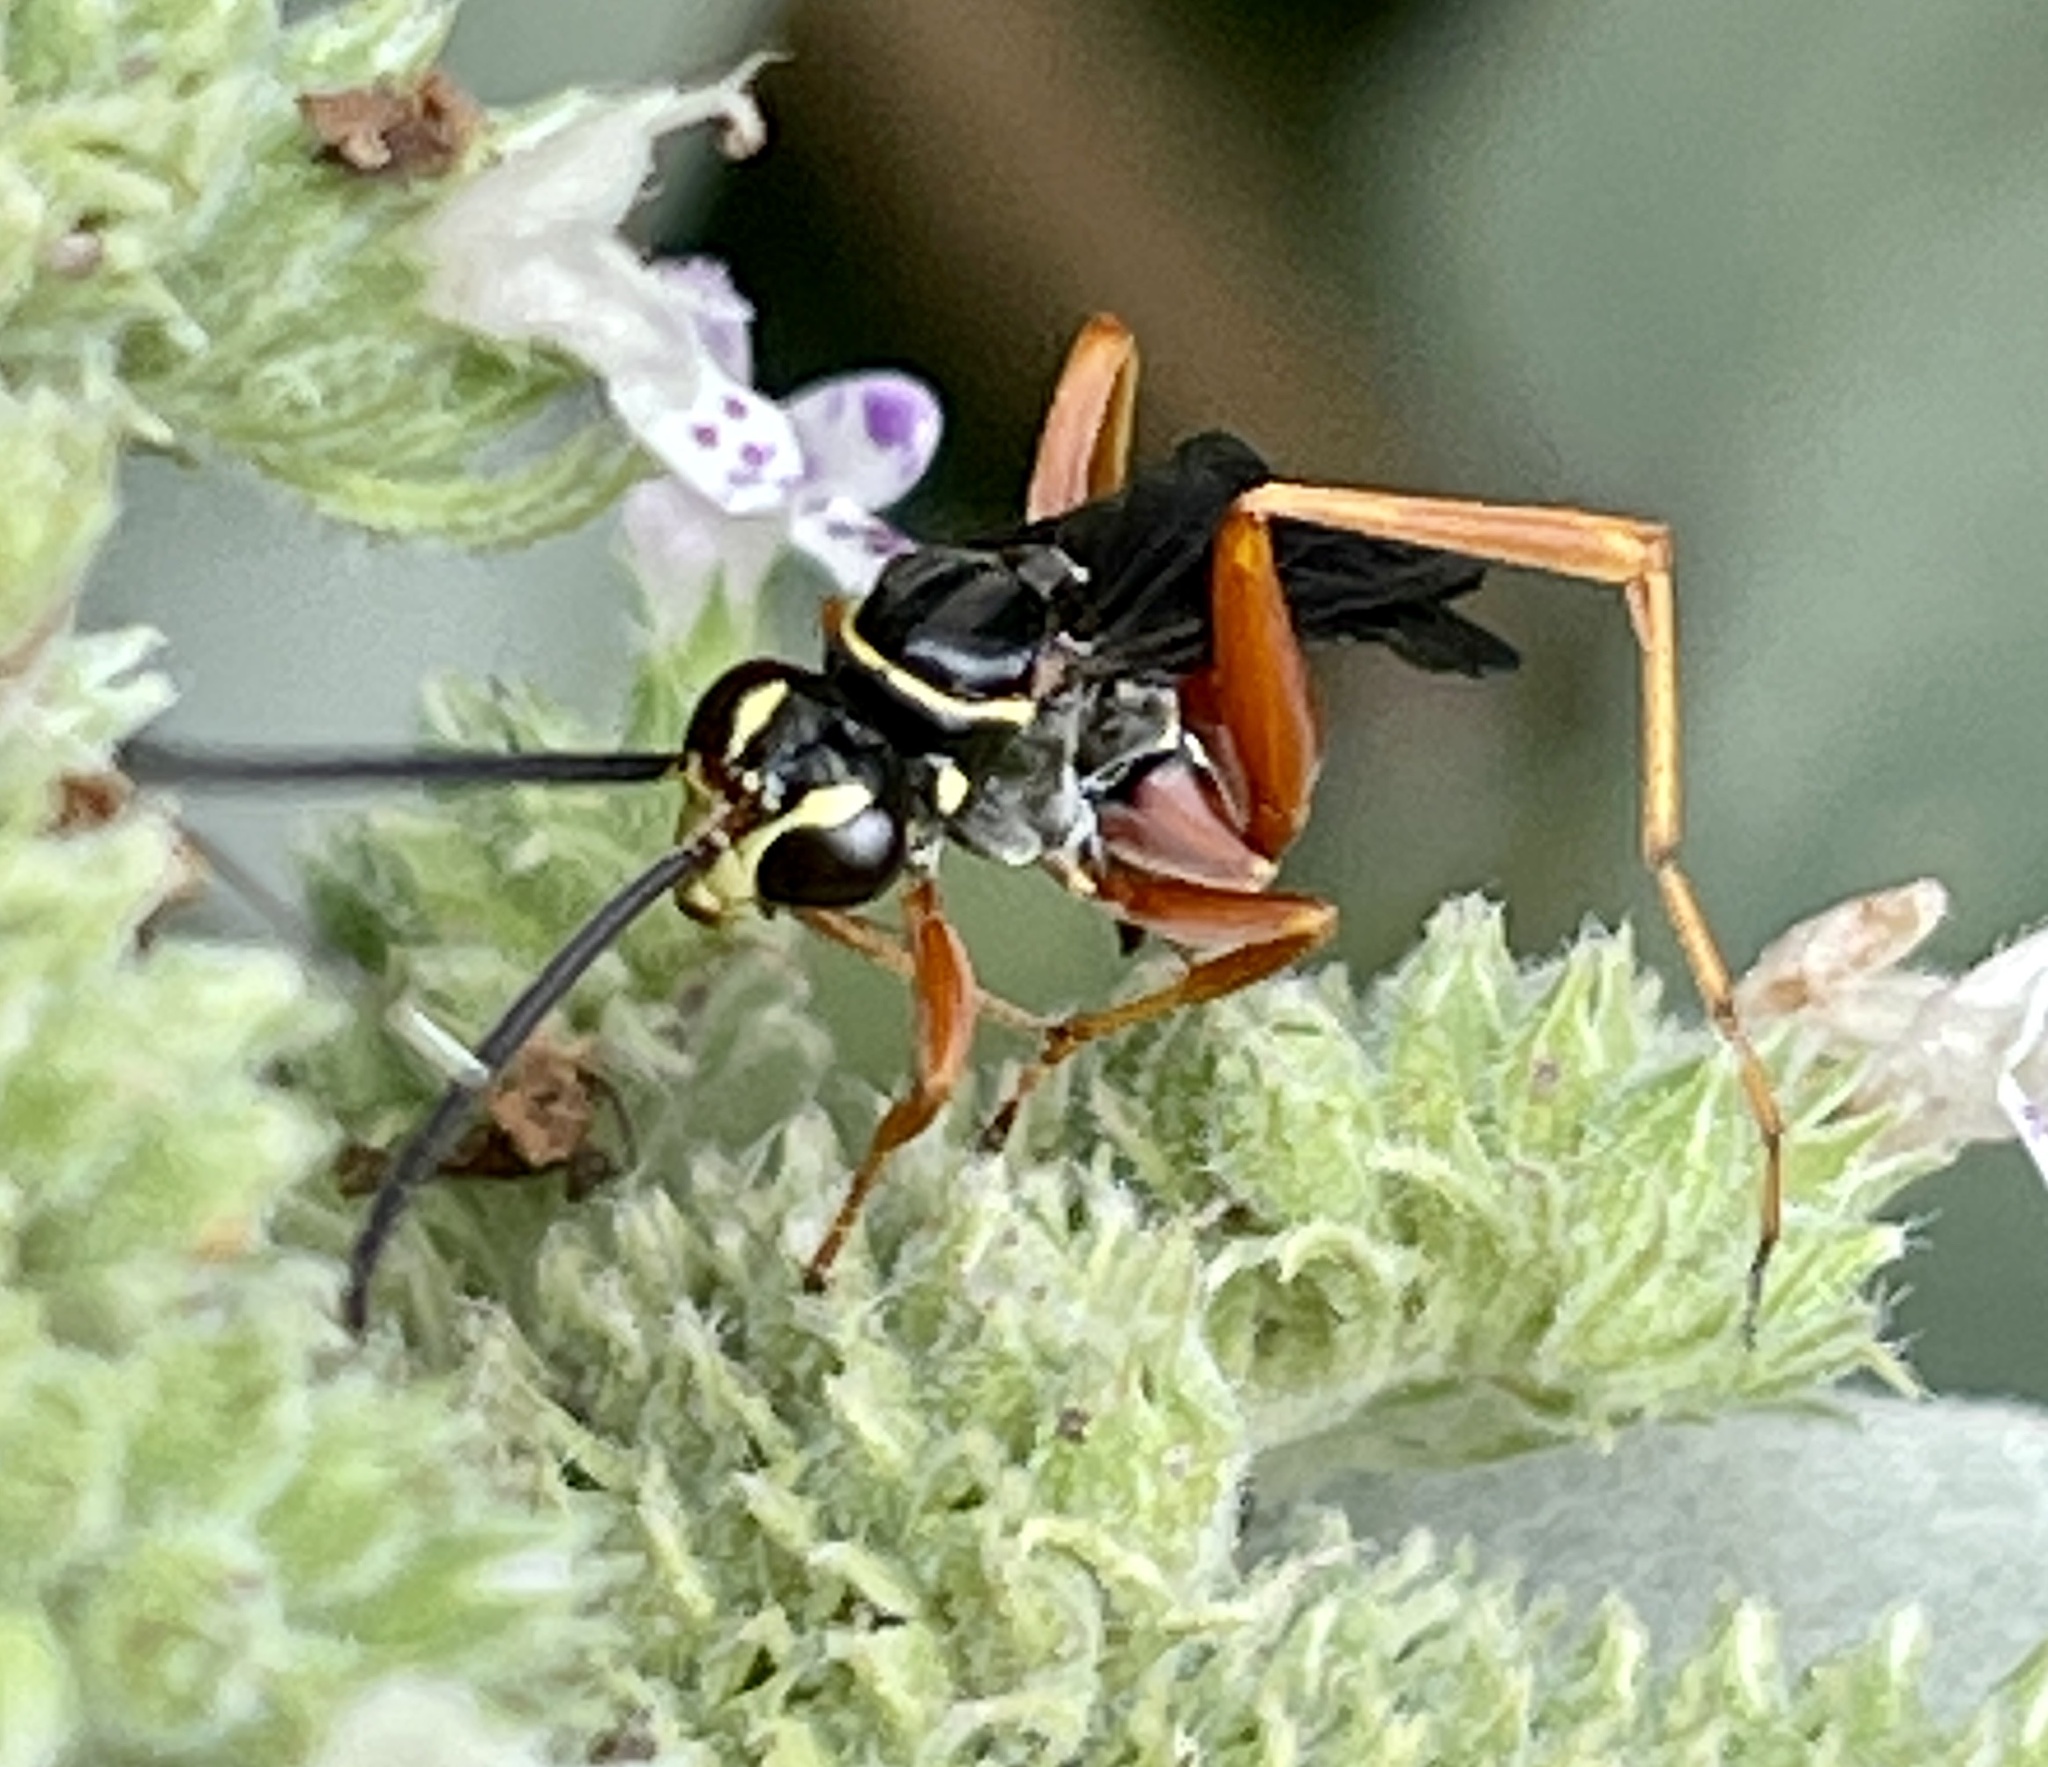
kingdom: Animalia
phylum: Arthropoda
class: Insecta
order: Hymenoptera
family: Pompilidae
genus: Ceropales
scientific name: Ceropales robinsonii
